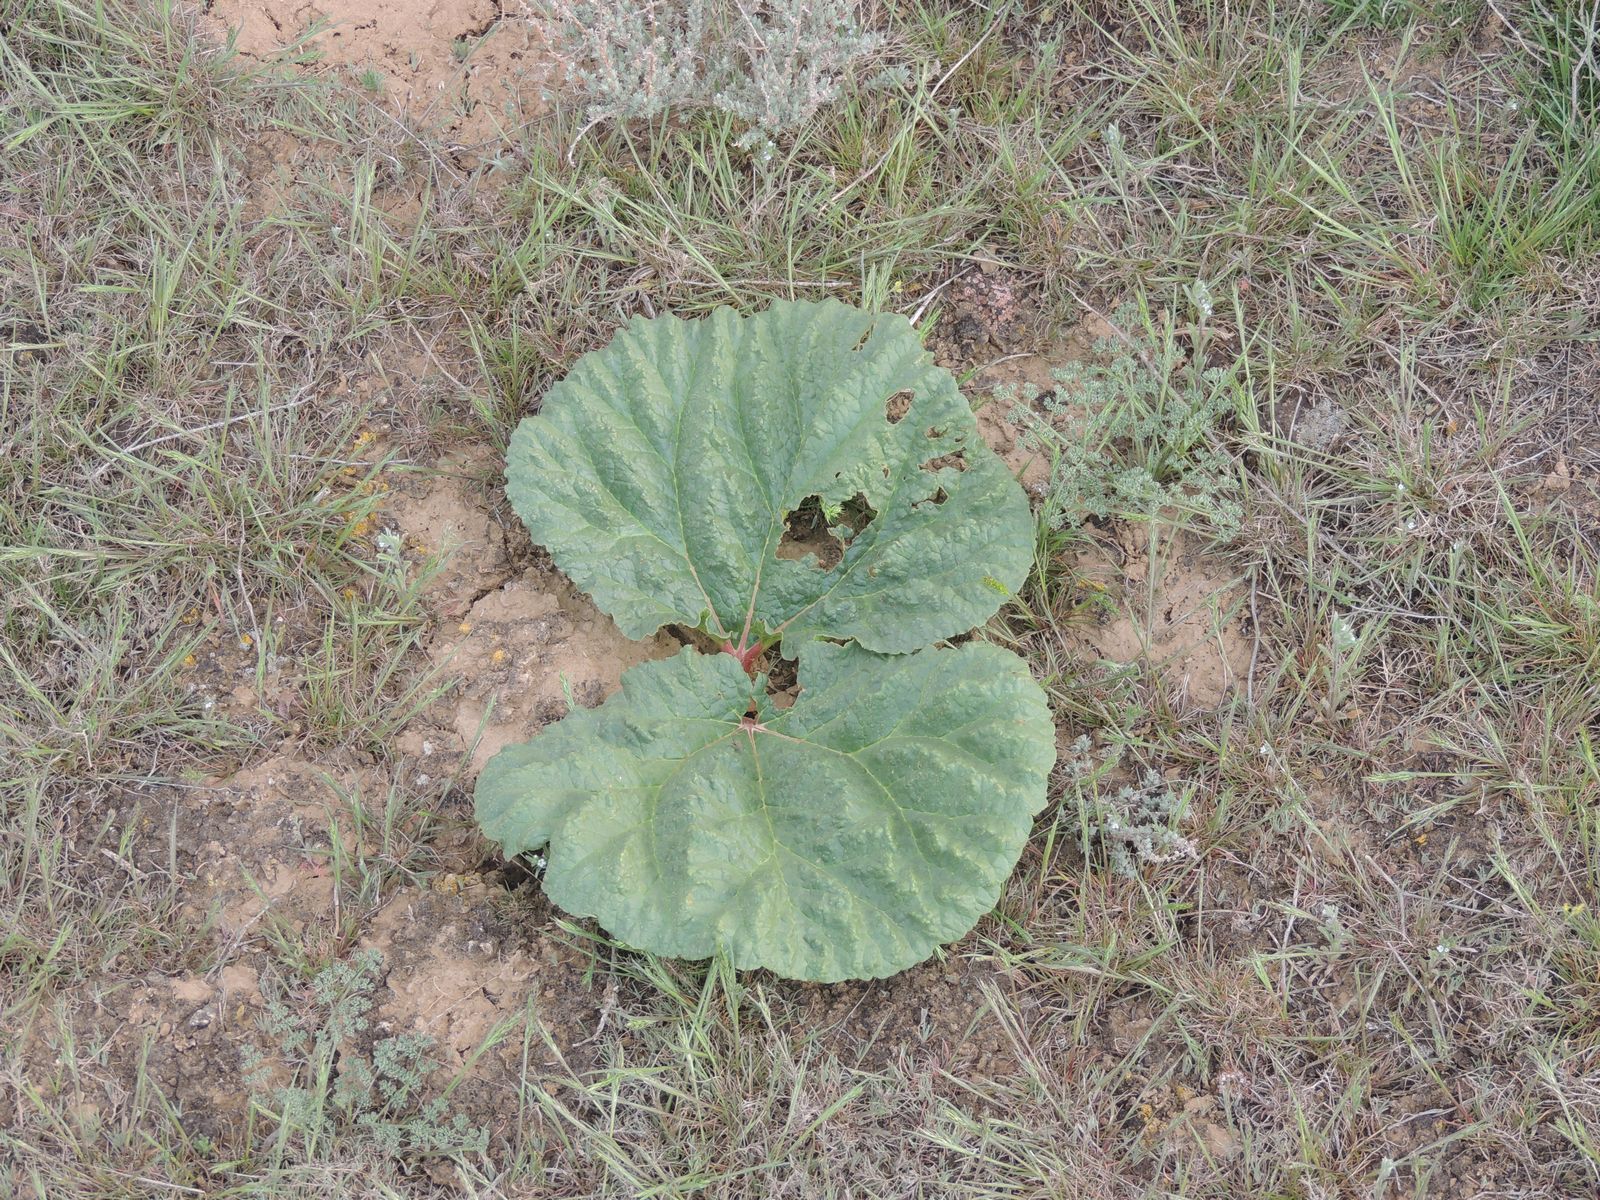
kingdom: Plantae
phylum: Tracheophyta
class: Magnoliopsida
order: Caryophyllales
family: Polygonaceae
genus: Rheum
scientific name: Rheum tataricum
